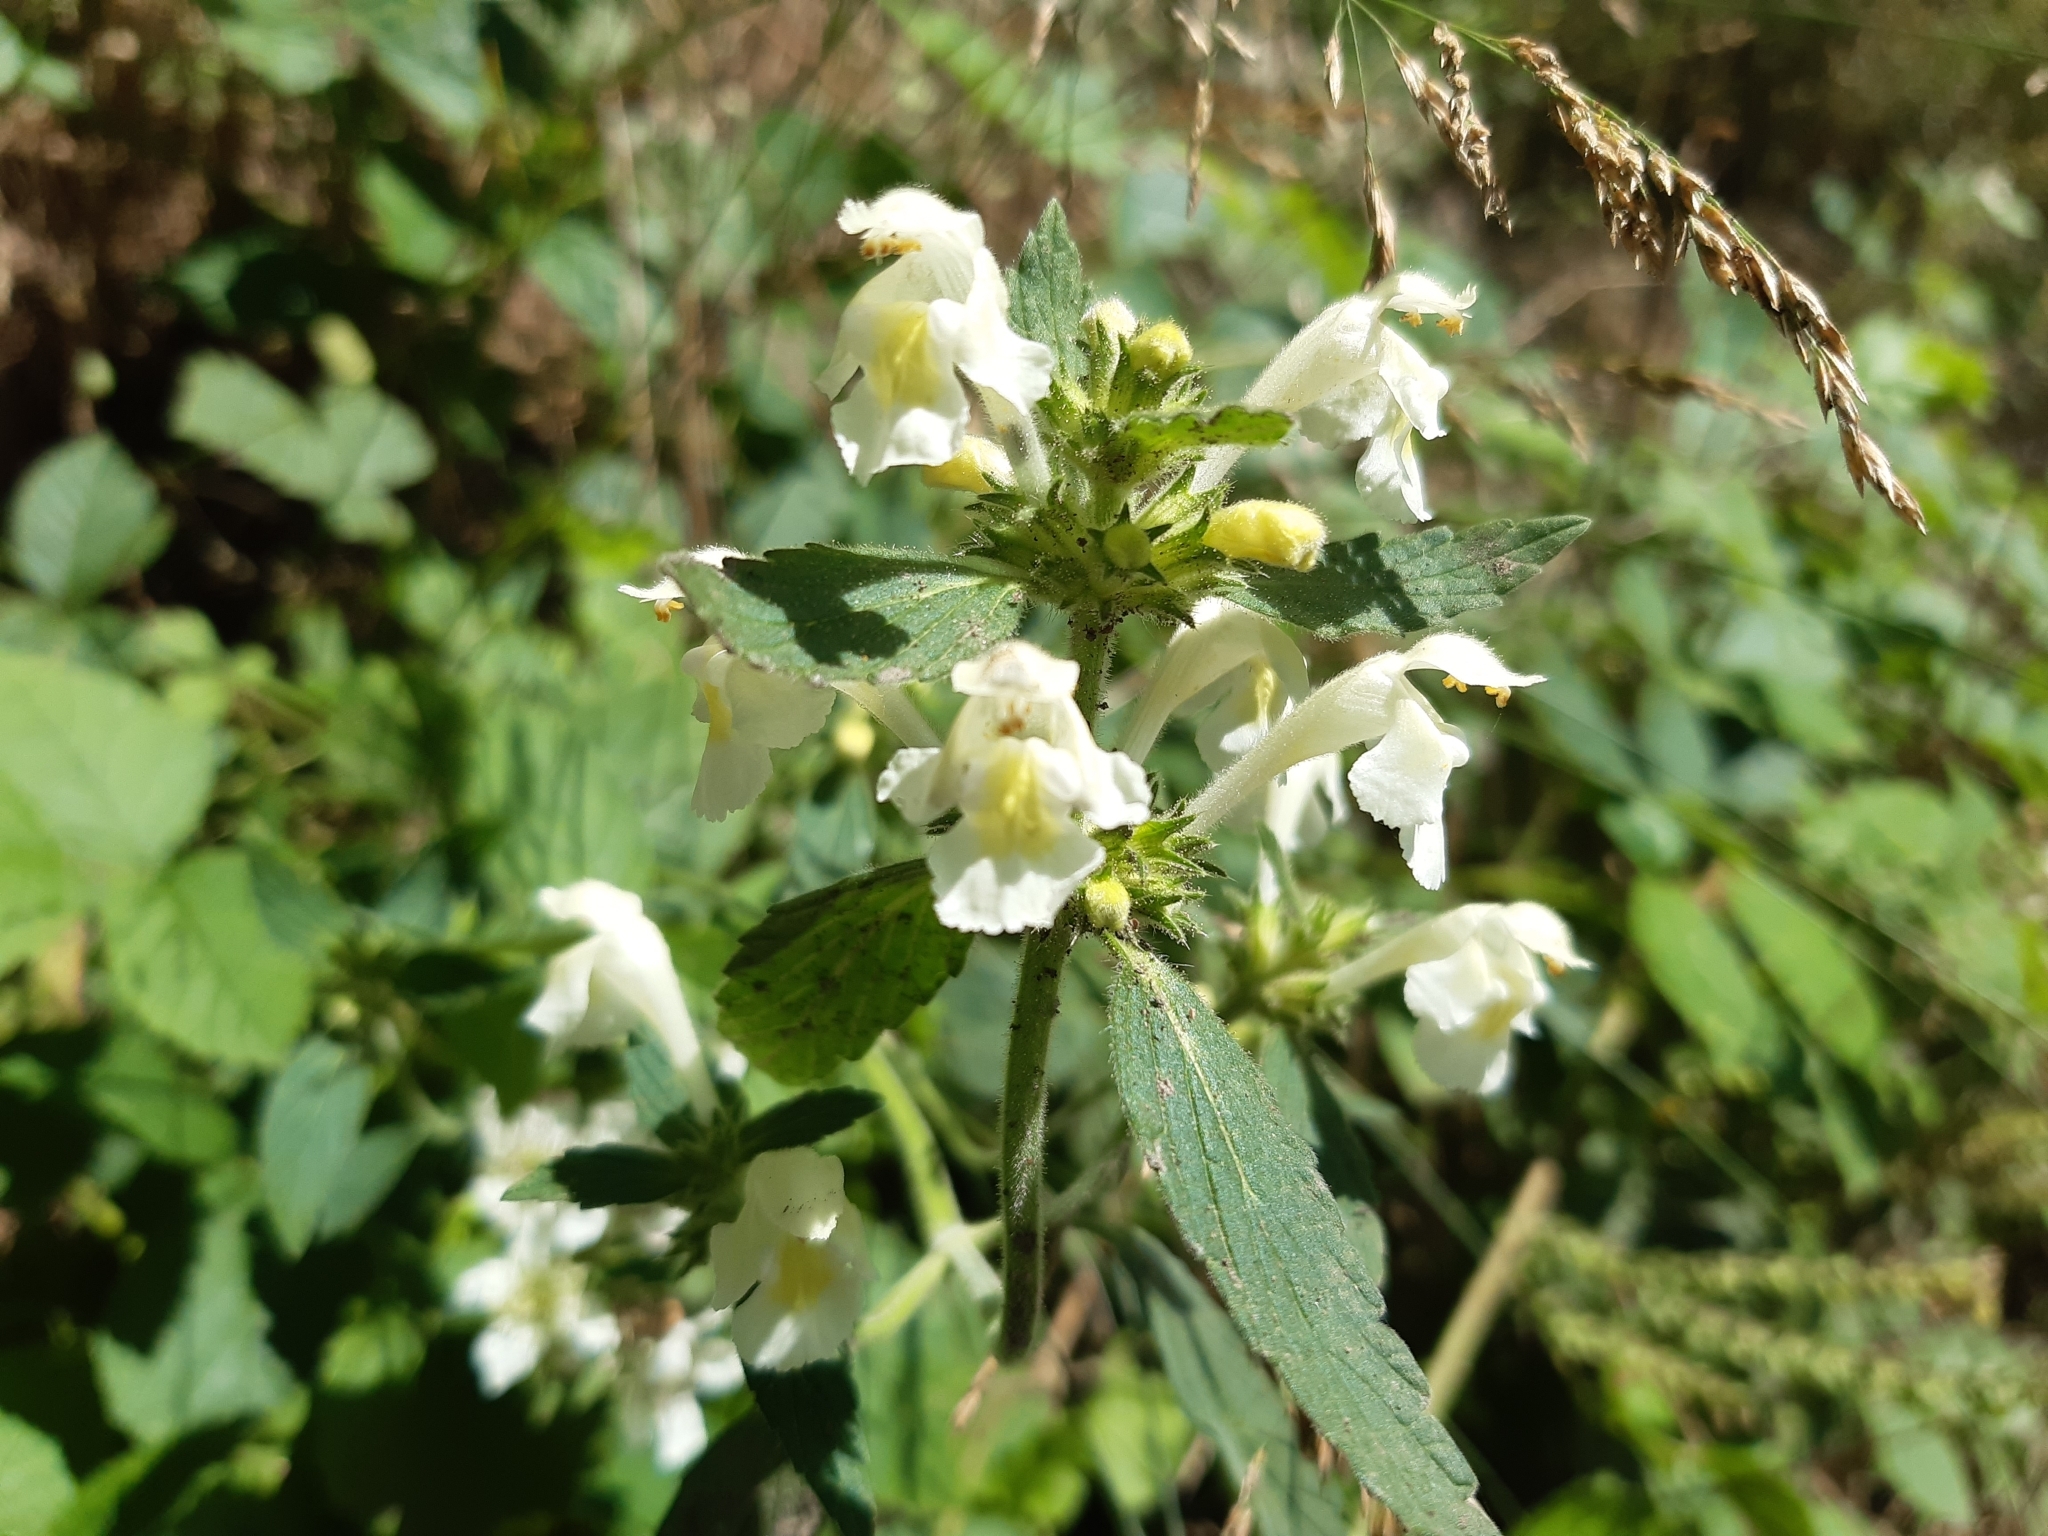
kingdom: Plantae
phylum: Tracheophyta
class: Magnoliopsida
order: Lamiales
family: Lamiaceae
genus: Galeopsis
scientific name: Galeopsis segetum
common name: Downy hemp-nettle
